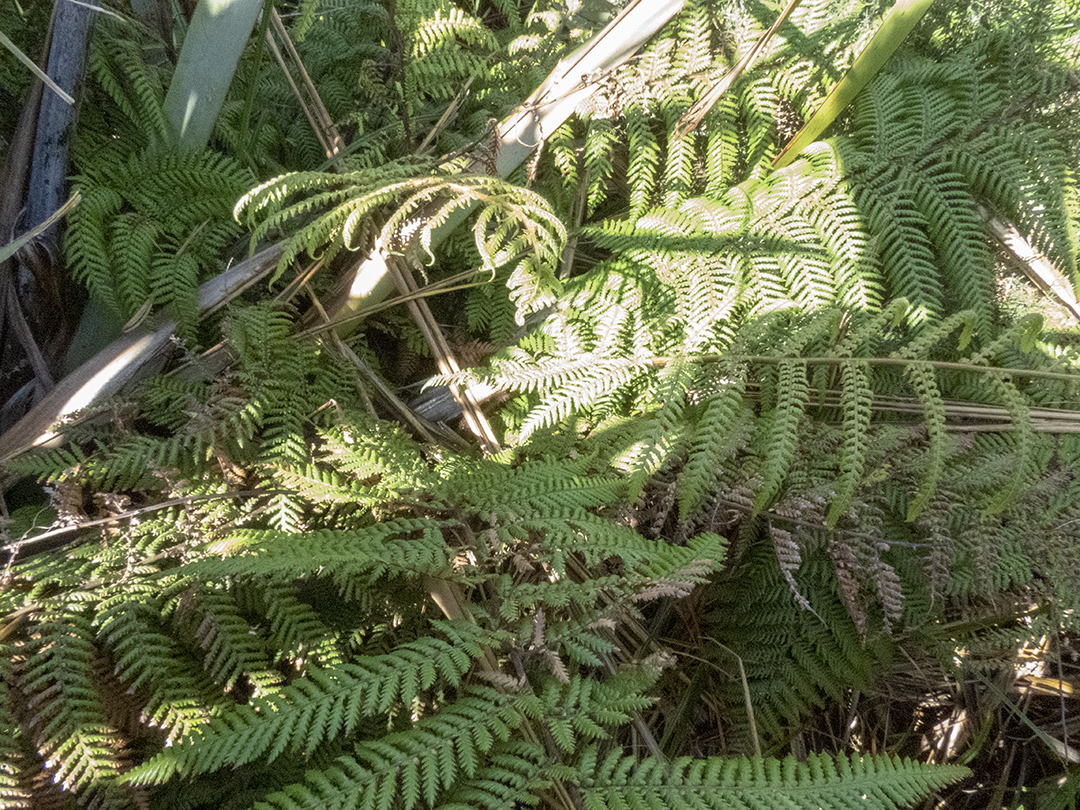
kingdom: Plantae
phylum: Tracheophyta
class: Polypodiopsida
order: Cyatheales
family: Dicksoniaceae
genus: Dicksonia
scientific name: Dicksonia squarrosa
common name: Hard treefern
